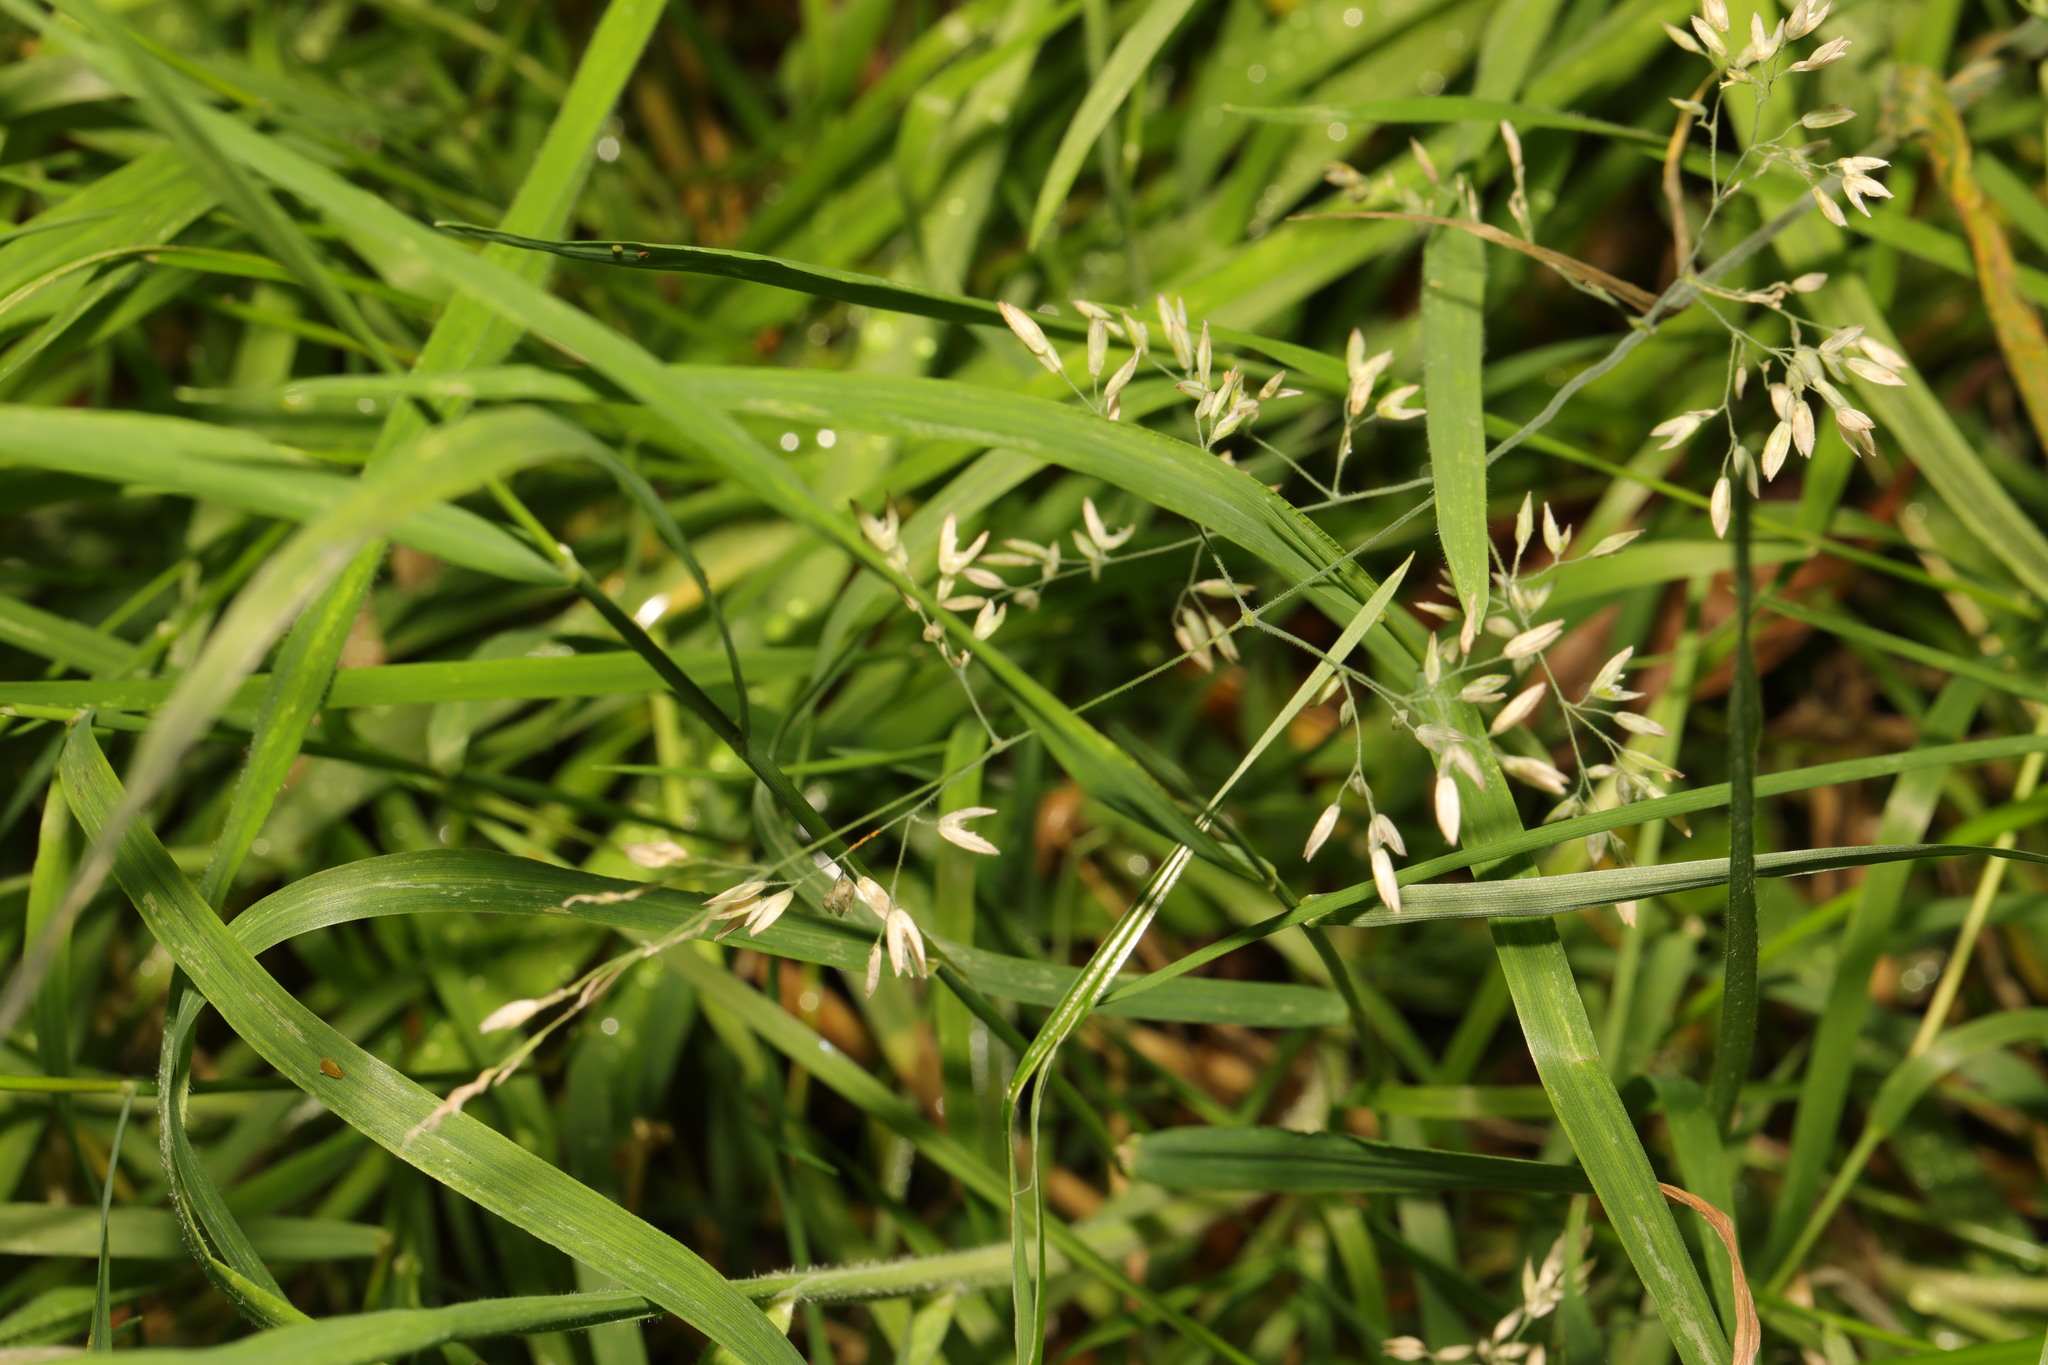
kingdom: Plantae
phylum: Tracheophyta
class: Liliopsida
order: Poales
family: Poaceae
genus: Poa
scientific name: Poa annua
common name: Annual bluegrass
